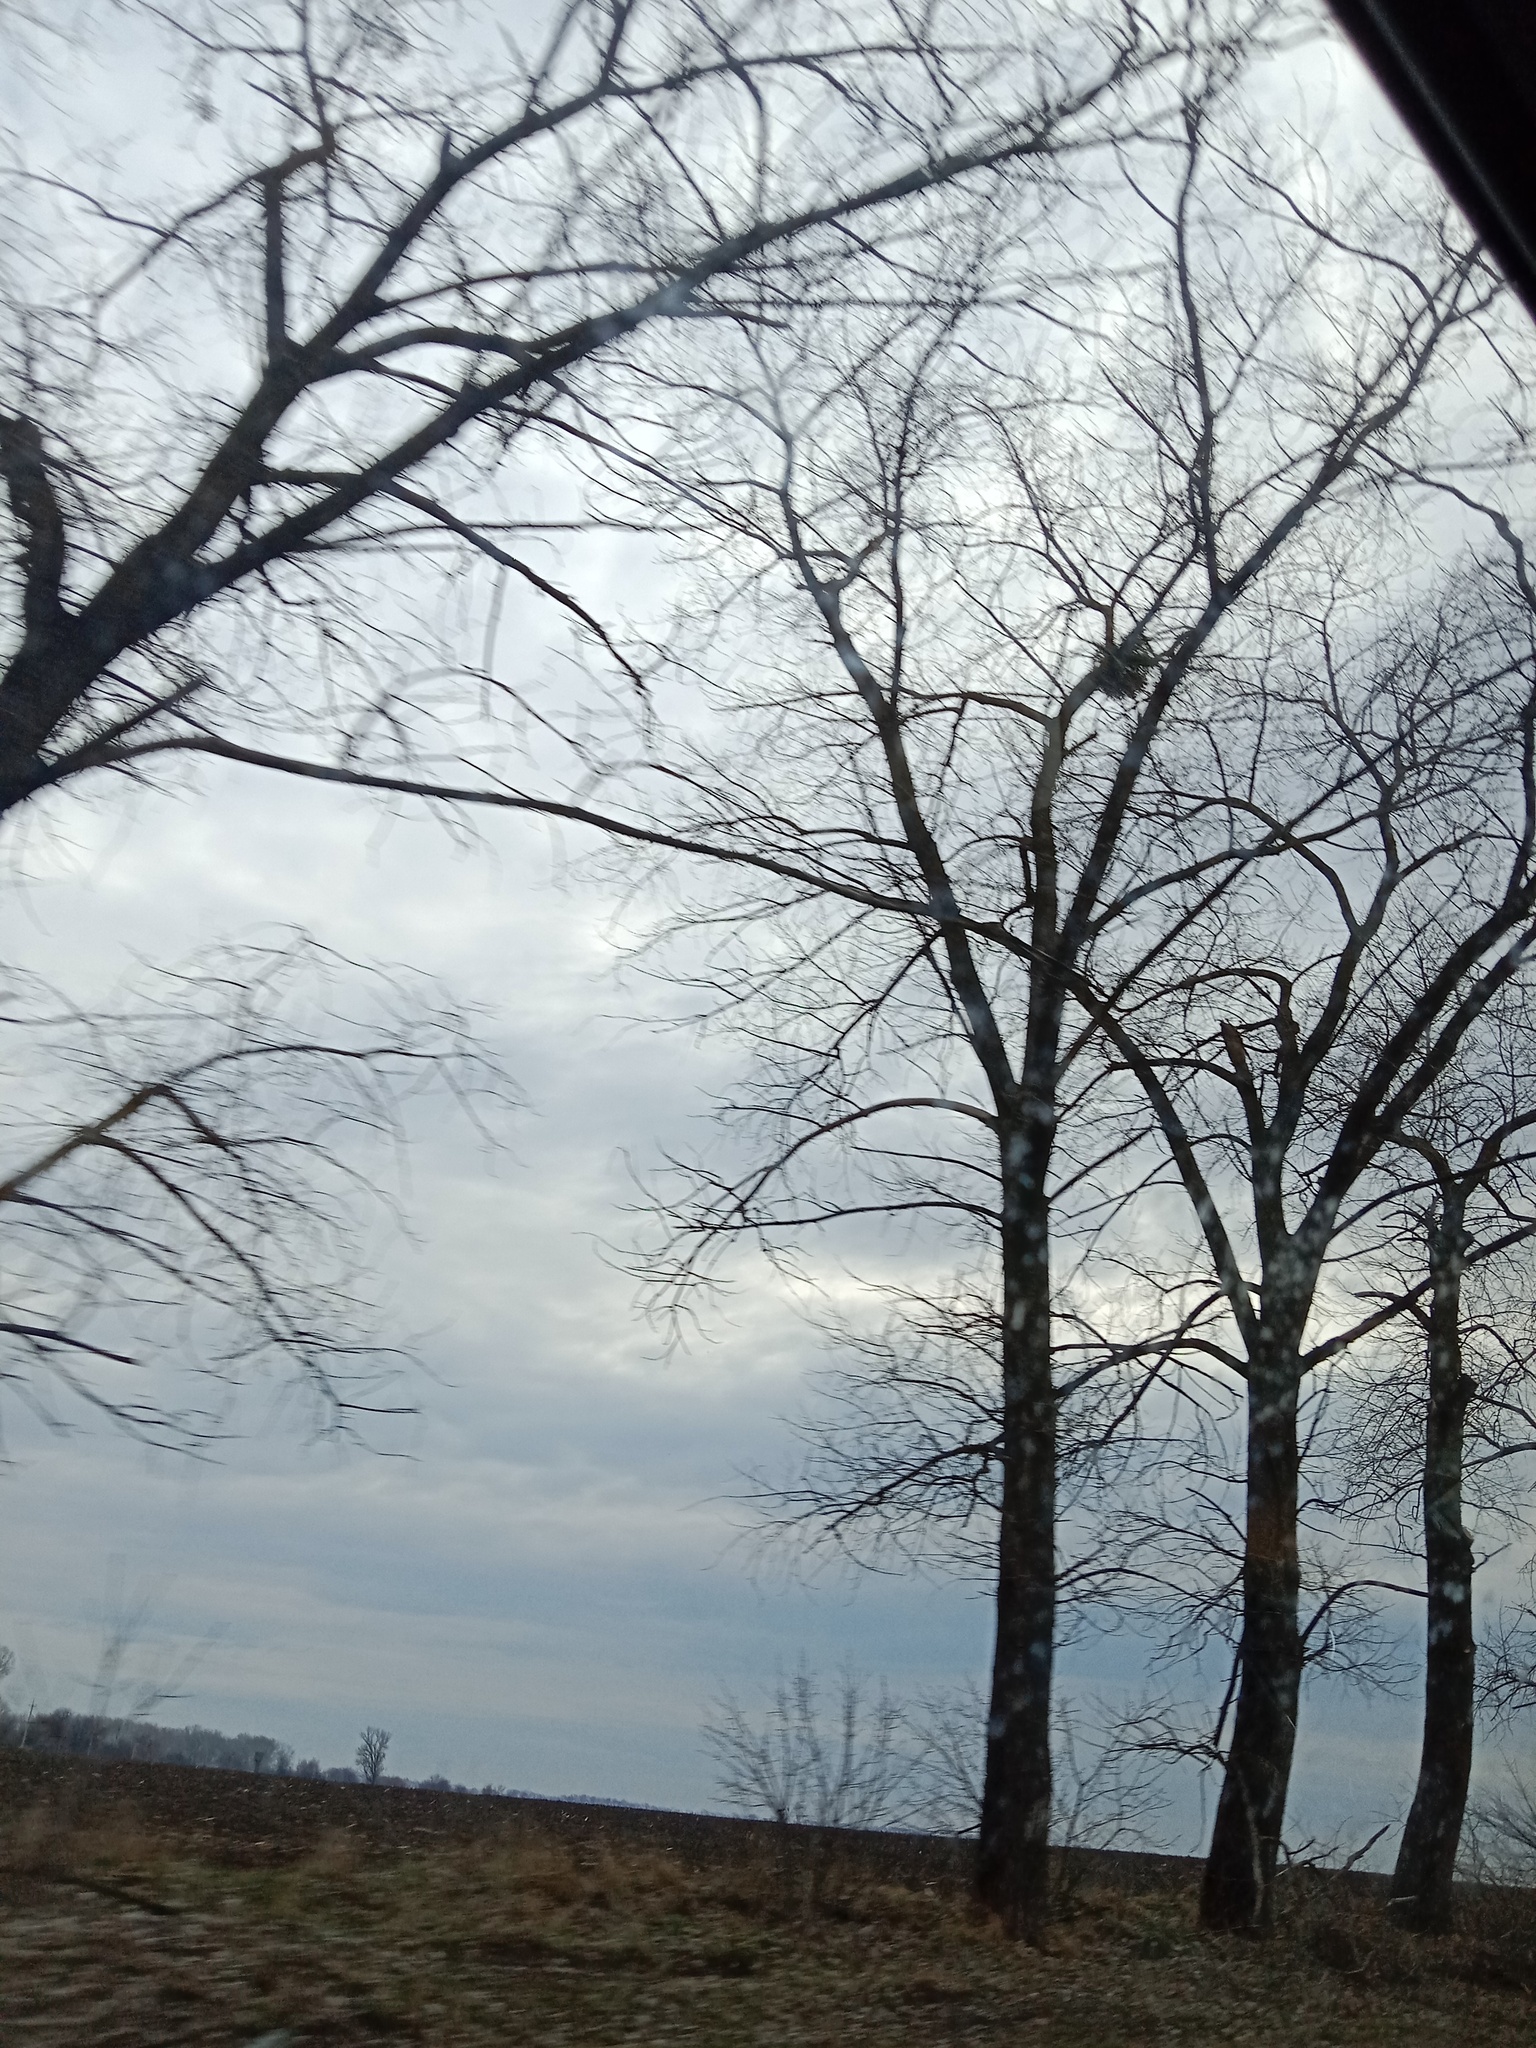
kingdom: Plantae
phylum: Tracheophyta
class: Magnoliopsida
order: Santalales
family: Viscaceae
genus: Viscum
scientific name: Viscum album
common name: Mistletoe
